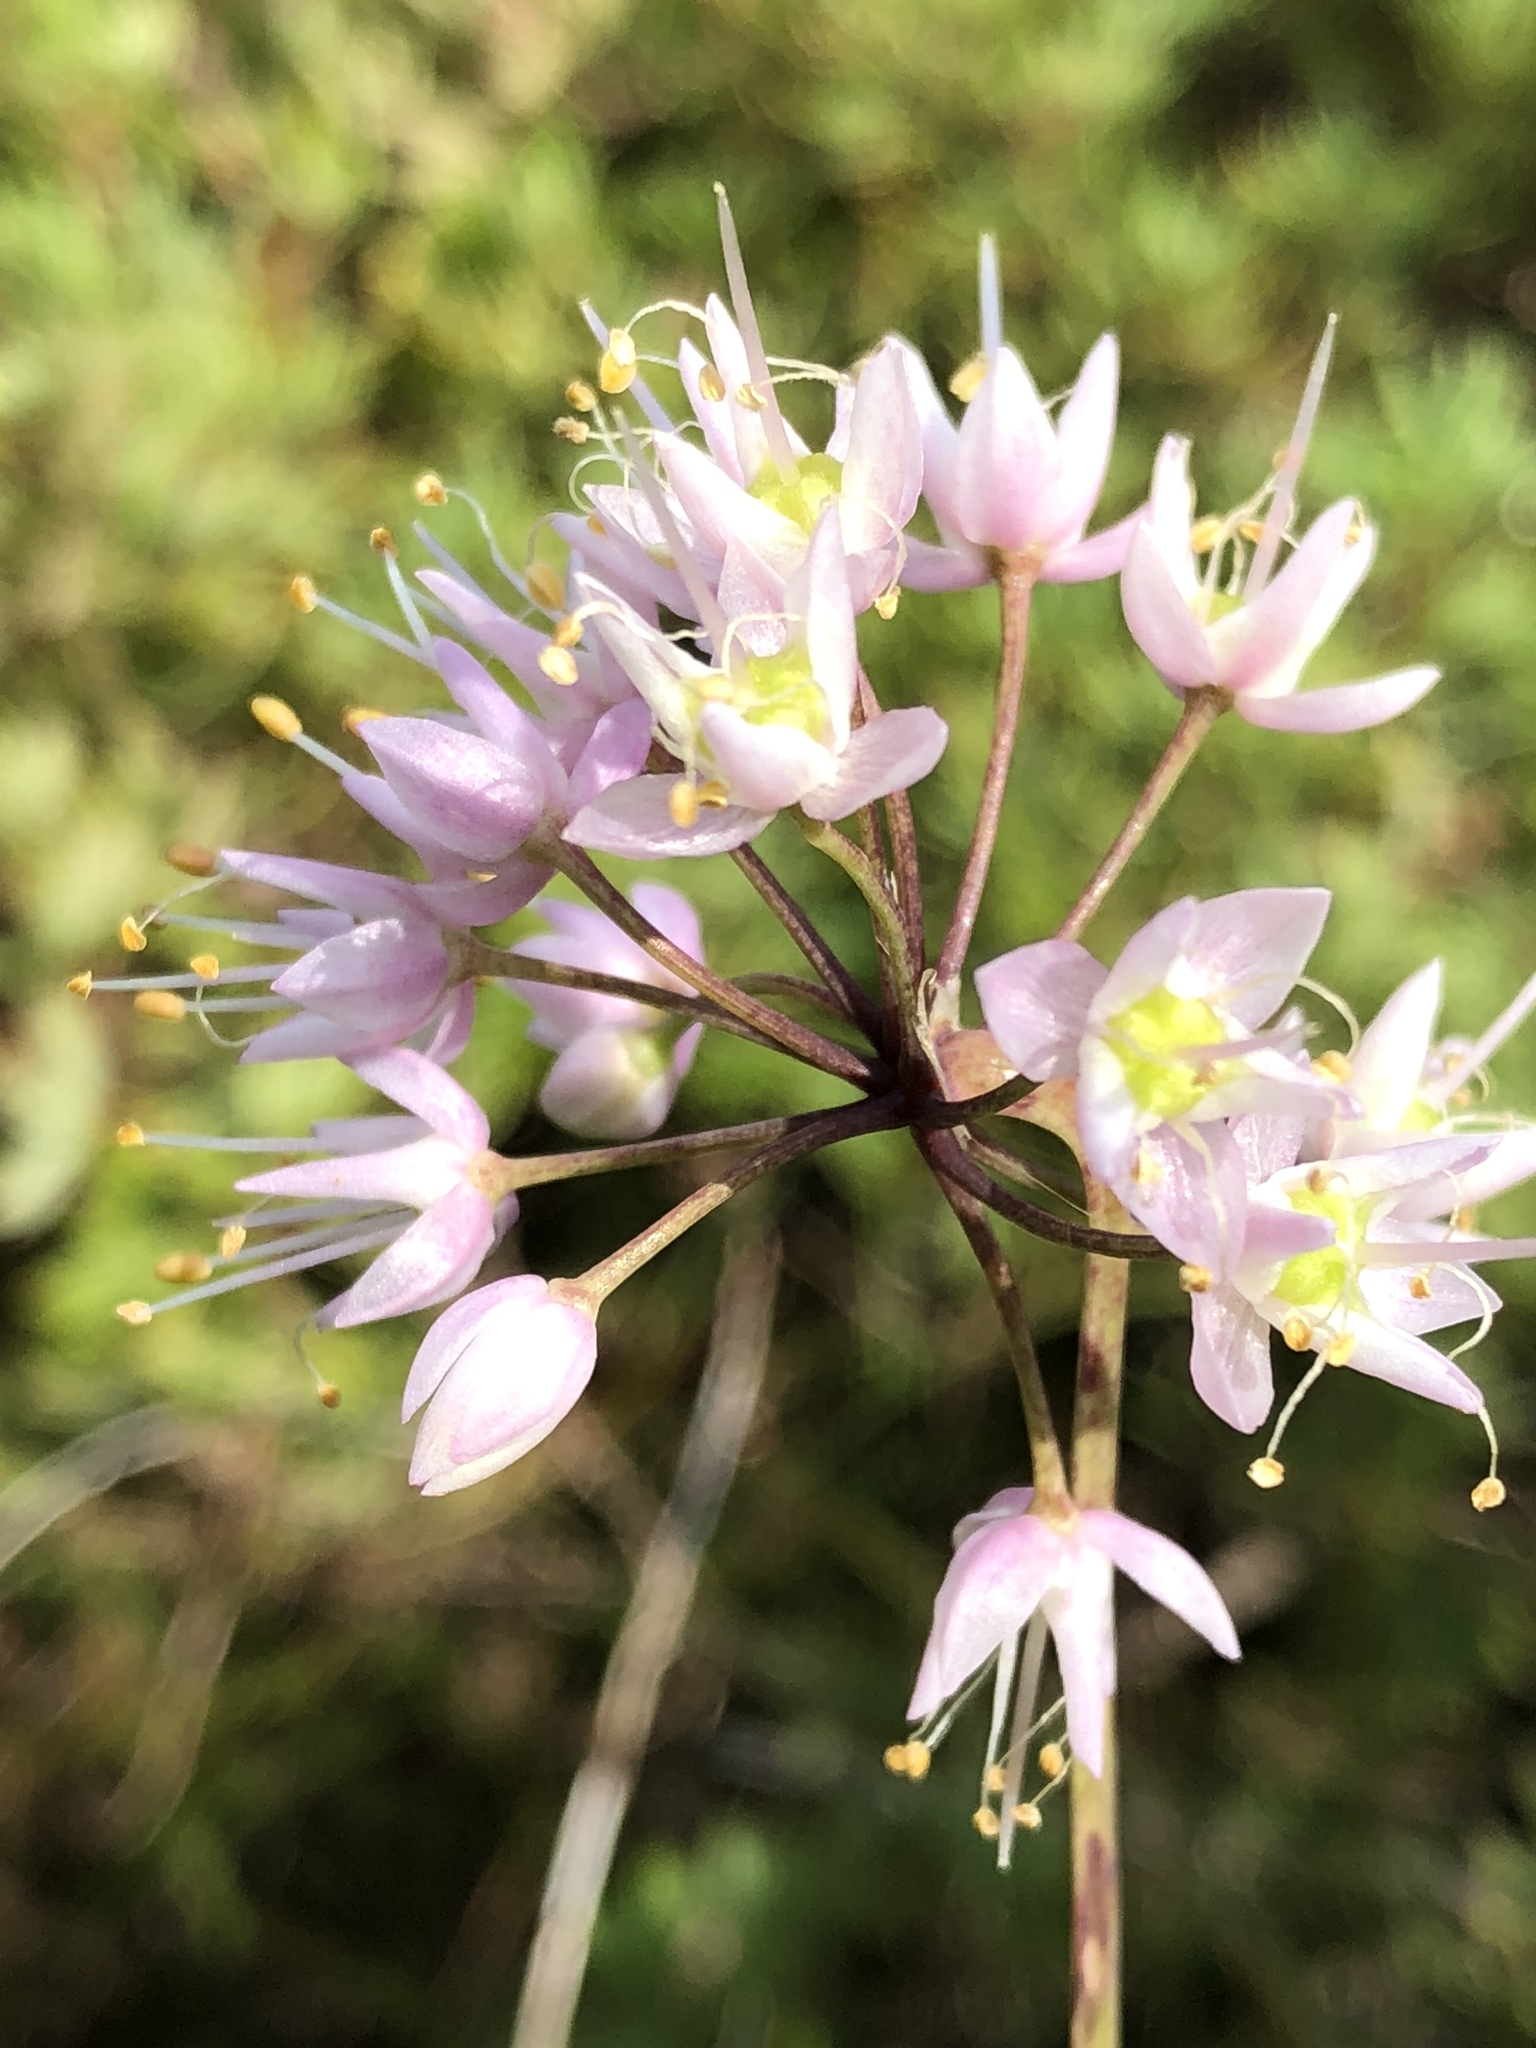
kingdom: Plantae
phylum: Tracheophyta
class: Liliopsida
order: Asparagales
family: Amaryllidaceae
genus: Allium
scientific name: Allium cernuum
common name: Nodding onion
